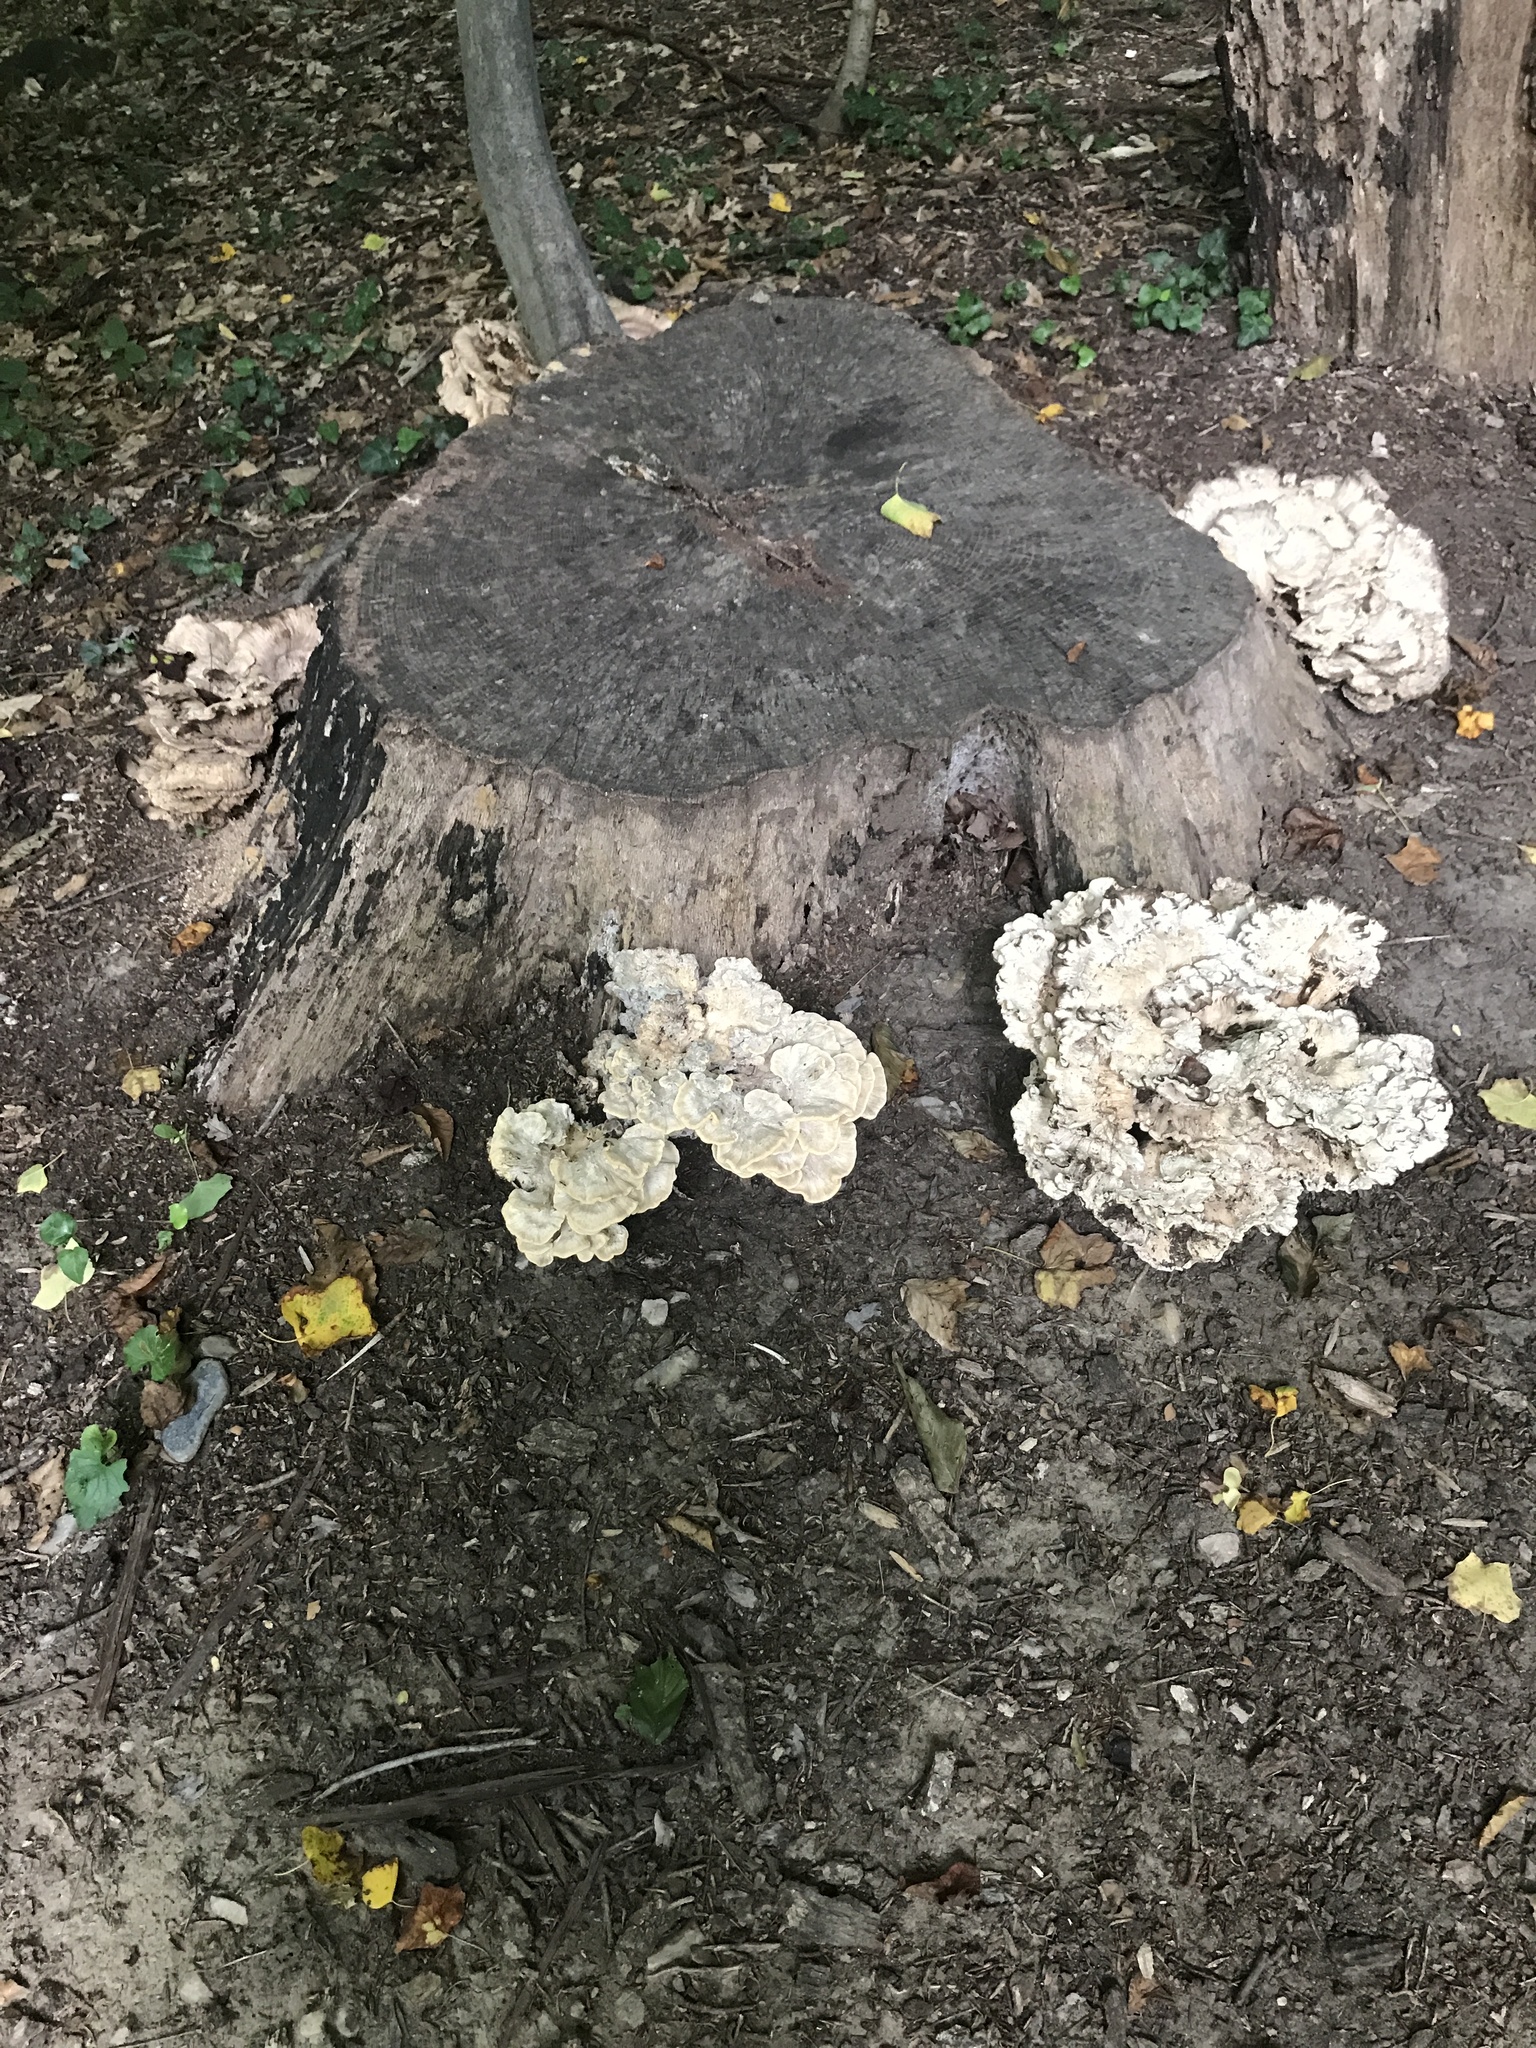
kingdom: Fungi
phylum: Basidiomycota
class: Agaricomycetes
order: Polyporales
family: Meripilaceae
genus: Meripilus
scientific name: Meripilus sumstinei
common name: Black-staining polypore
